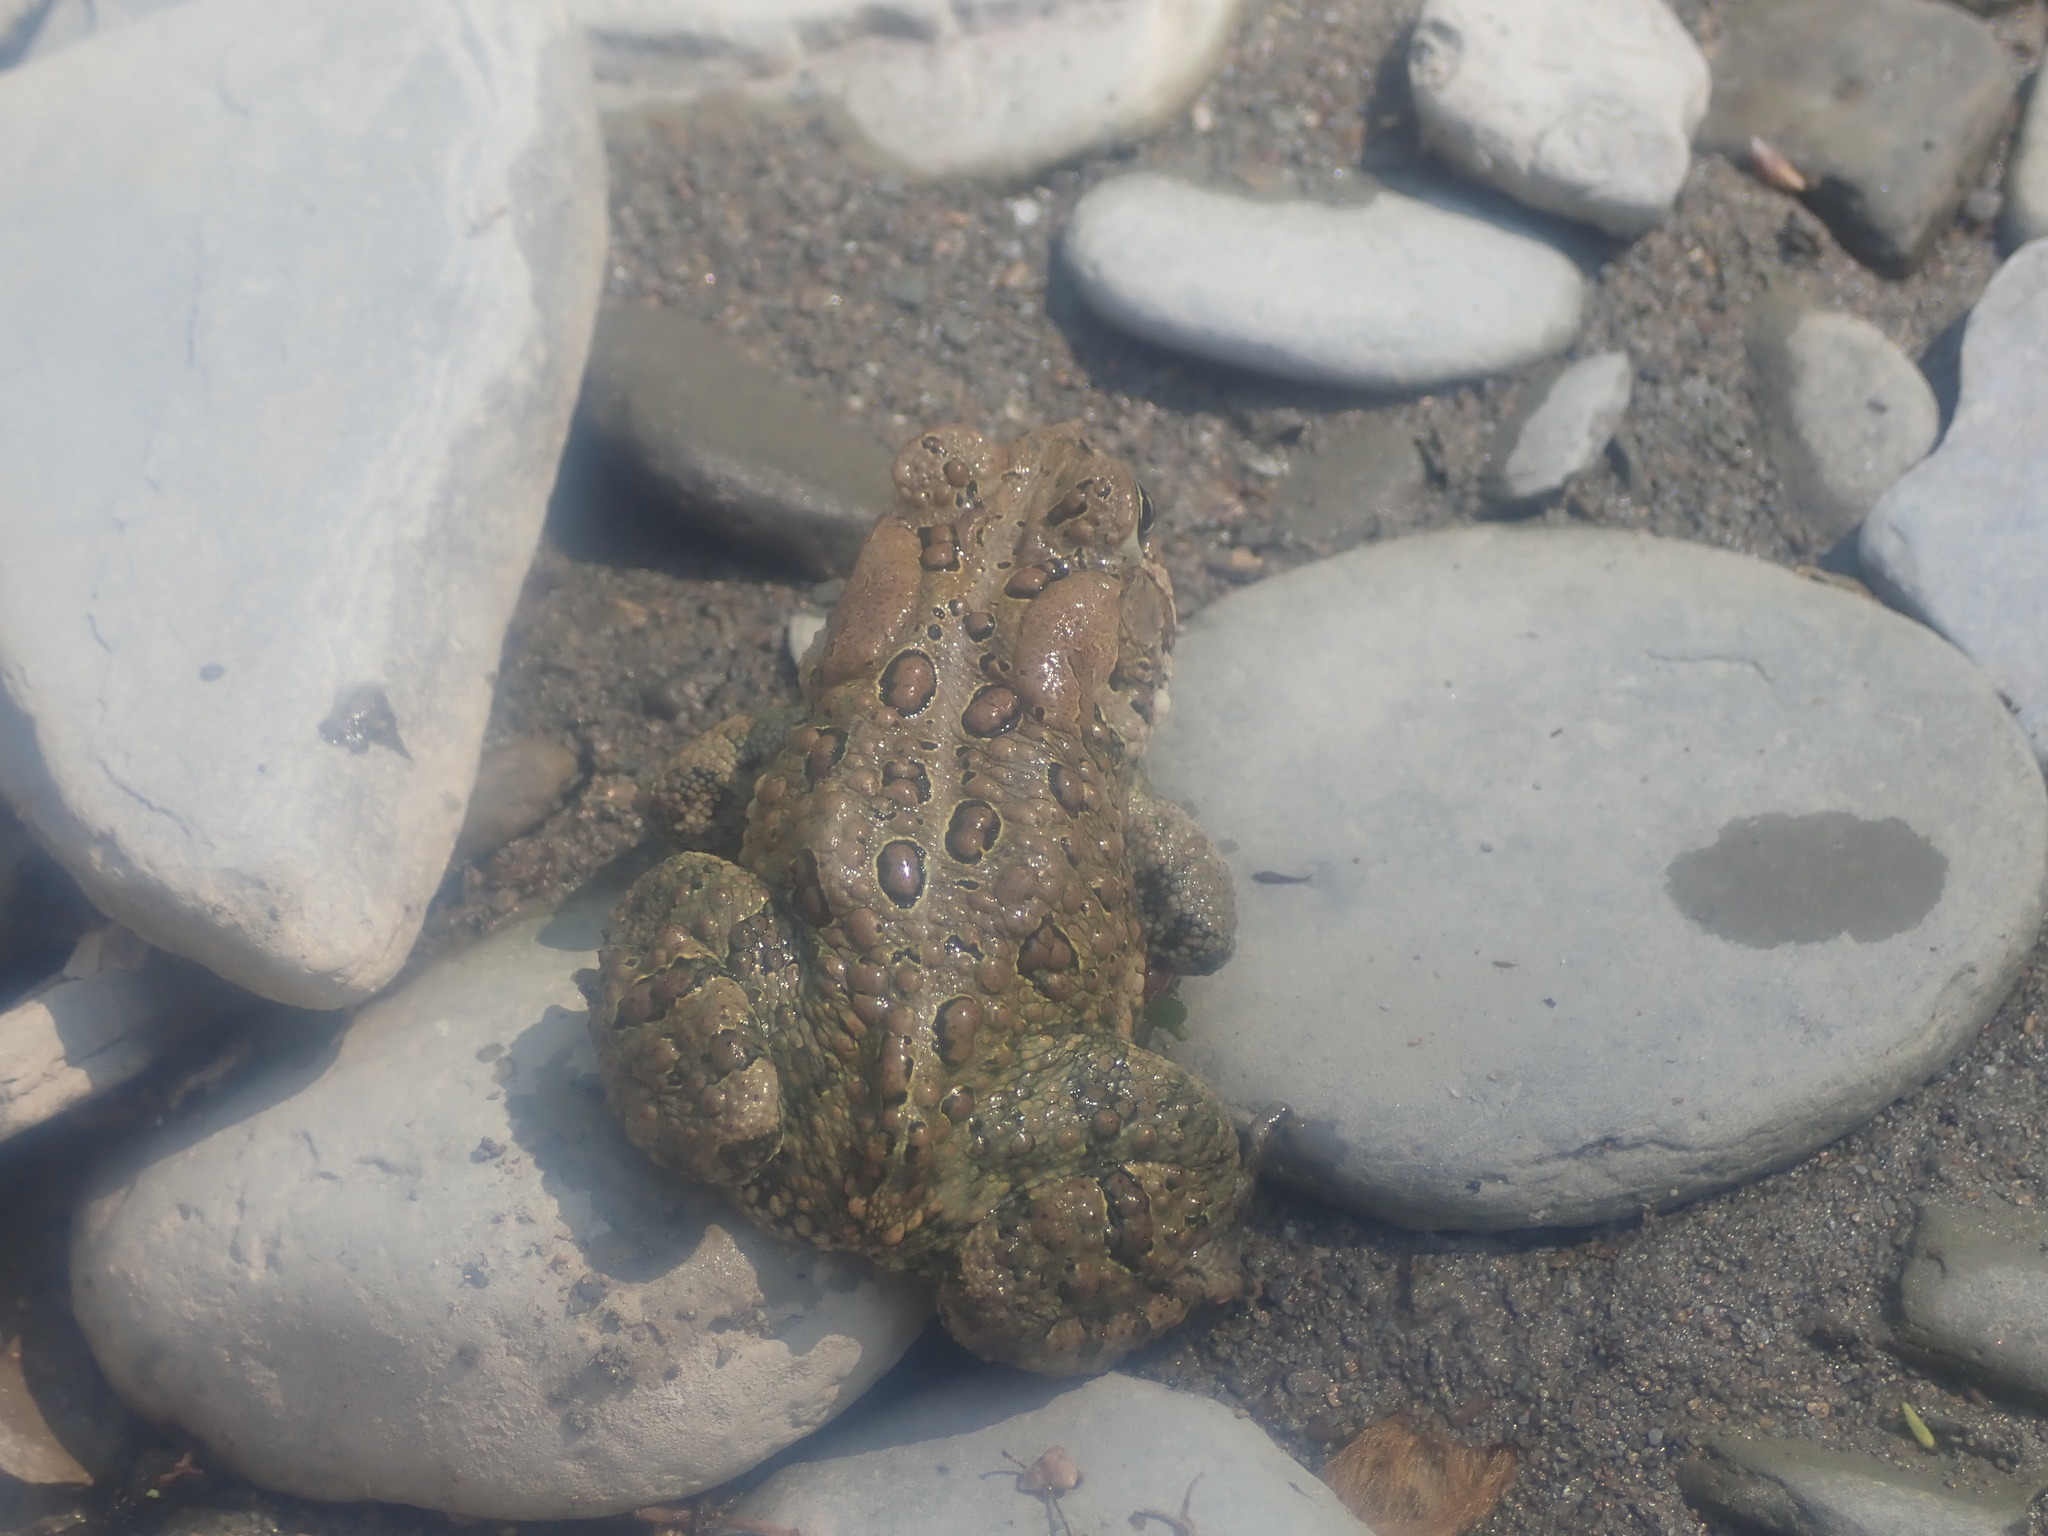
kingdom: Animalia
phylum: Chordata
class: Amphibia
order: Anura
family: Bufonidae
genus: Anaxyrus
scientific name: Anaxyrus americanus
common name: American toad
